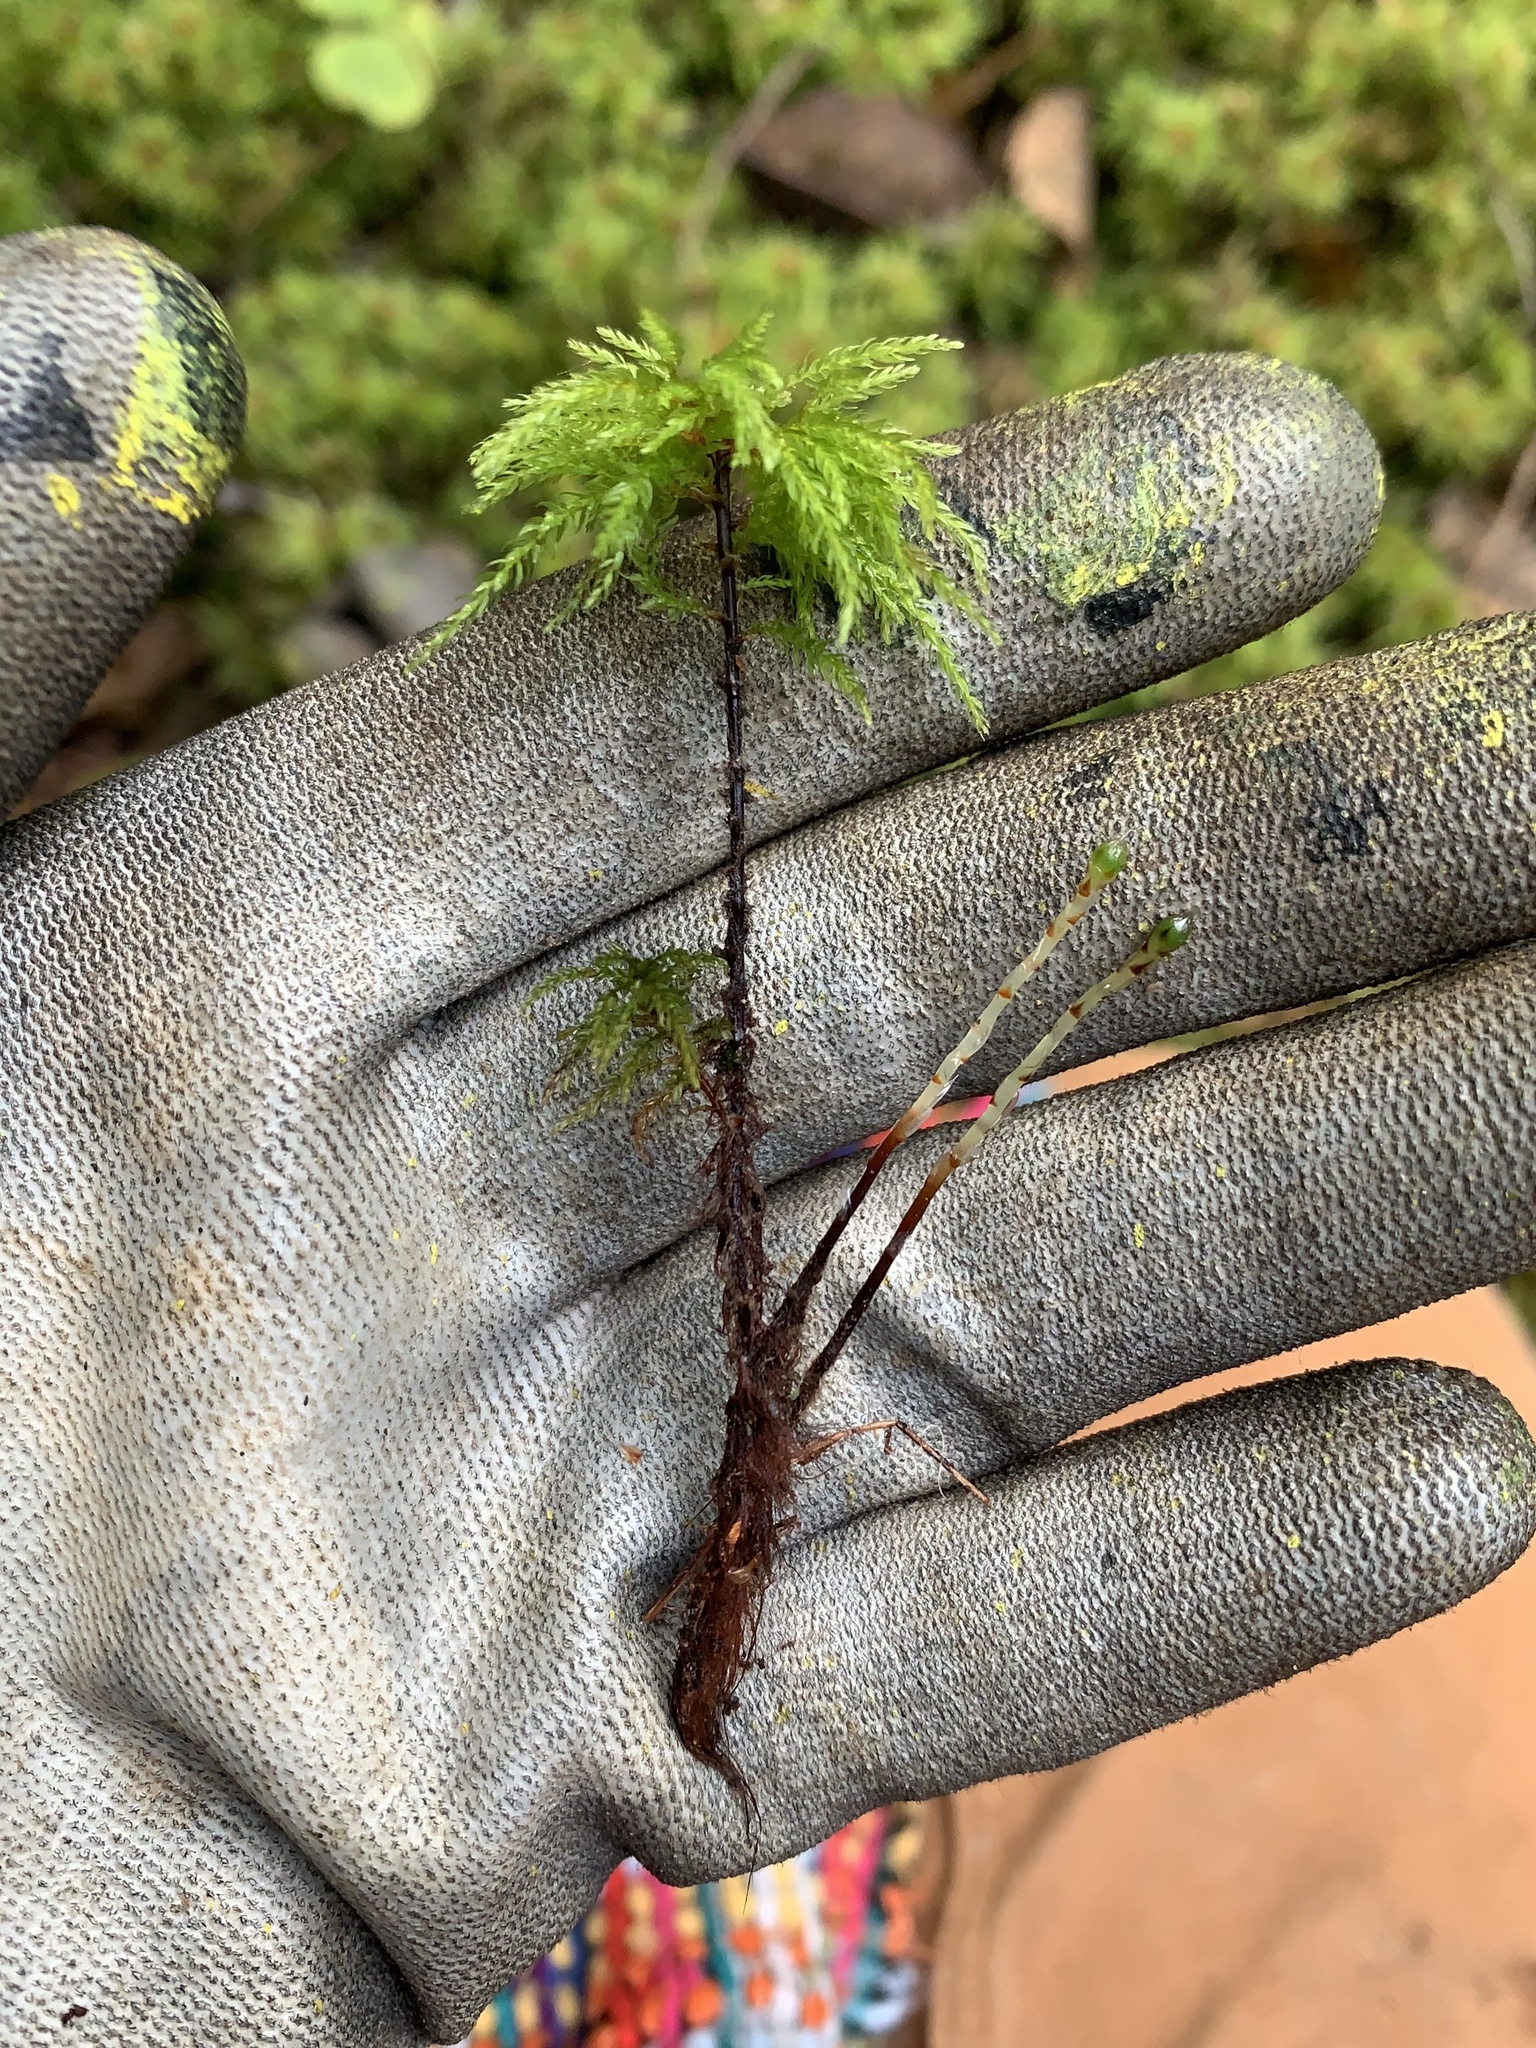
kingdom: Plantae
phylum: Bryophyta
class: Bryopsida
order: Bryales
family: Mniaceae
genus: Leucolepis
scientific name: Leucolepis acanthoneura
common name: Leucolepis umbrella moss
